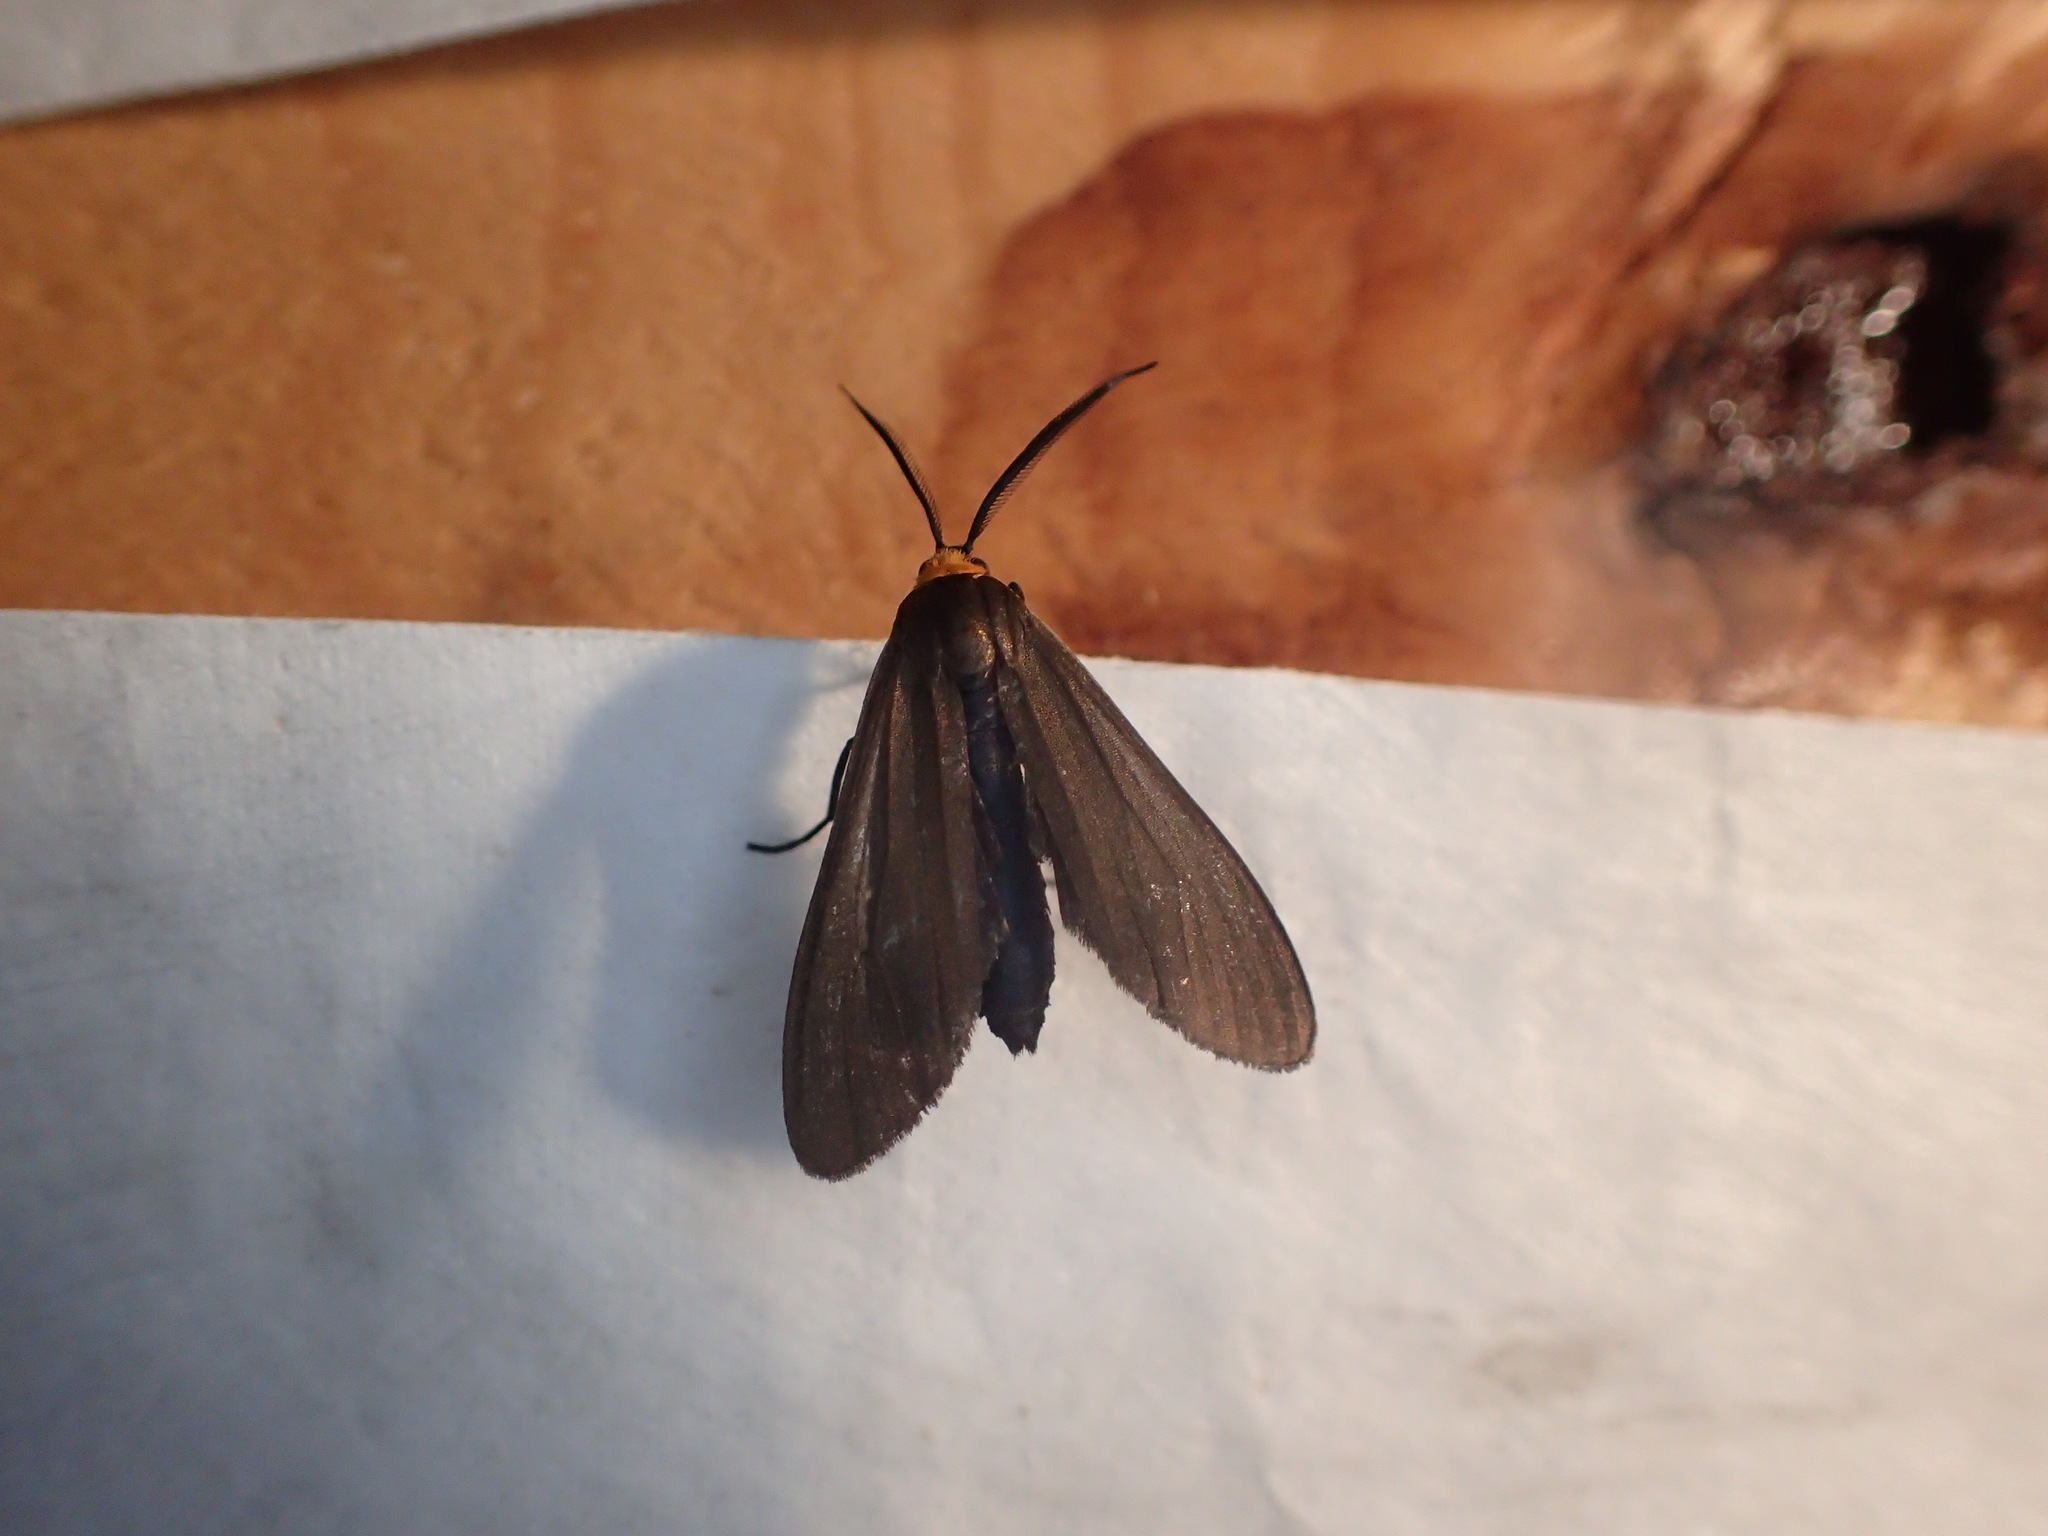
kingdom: Animalia
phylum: Arthropoda
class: Insecta
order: Lepidoptera
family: Erebidae
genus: Cisseps
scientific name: Cisseps fulvicollis
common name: Yellow-collared scape moth
